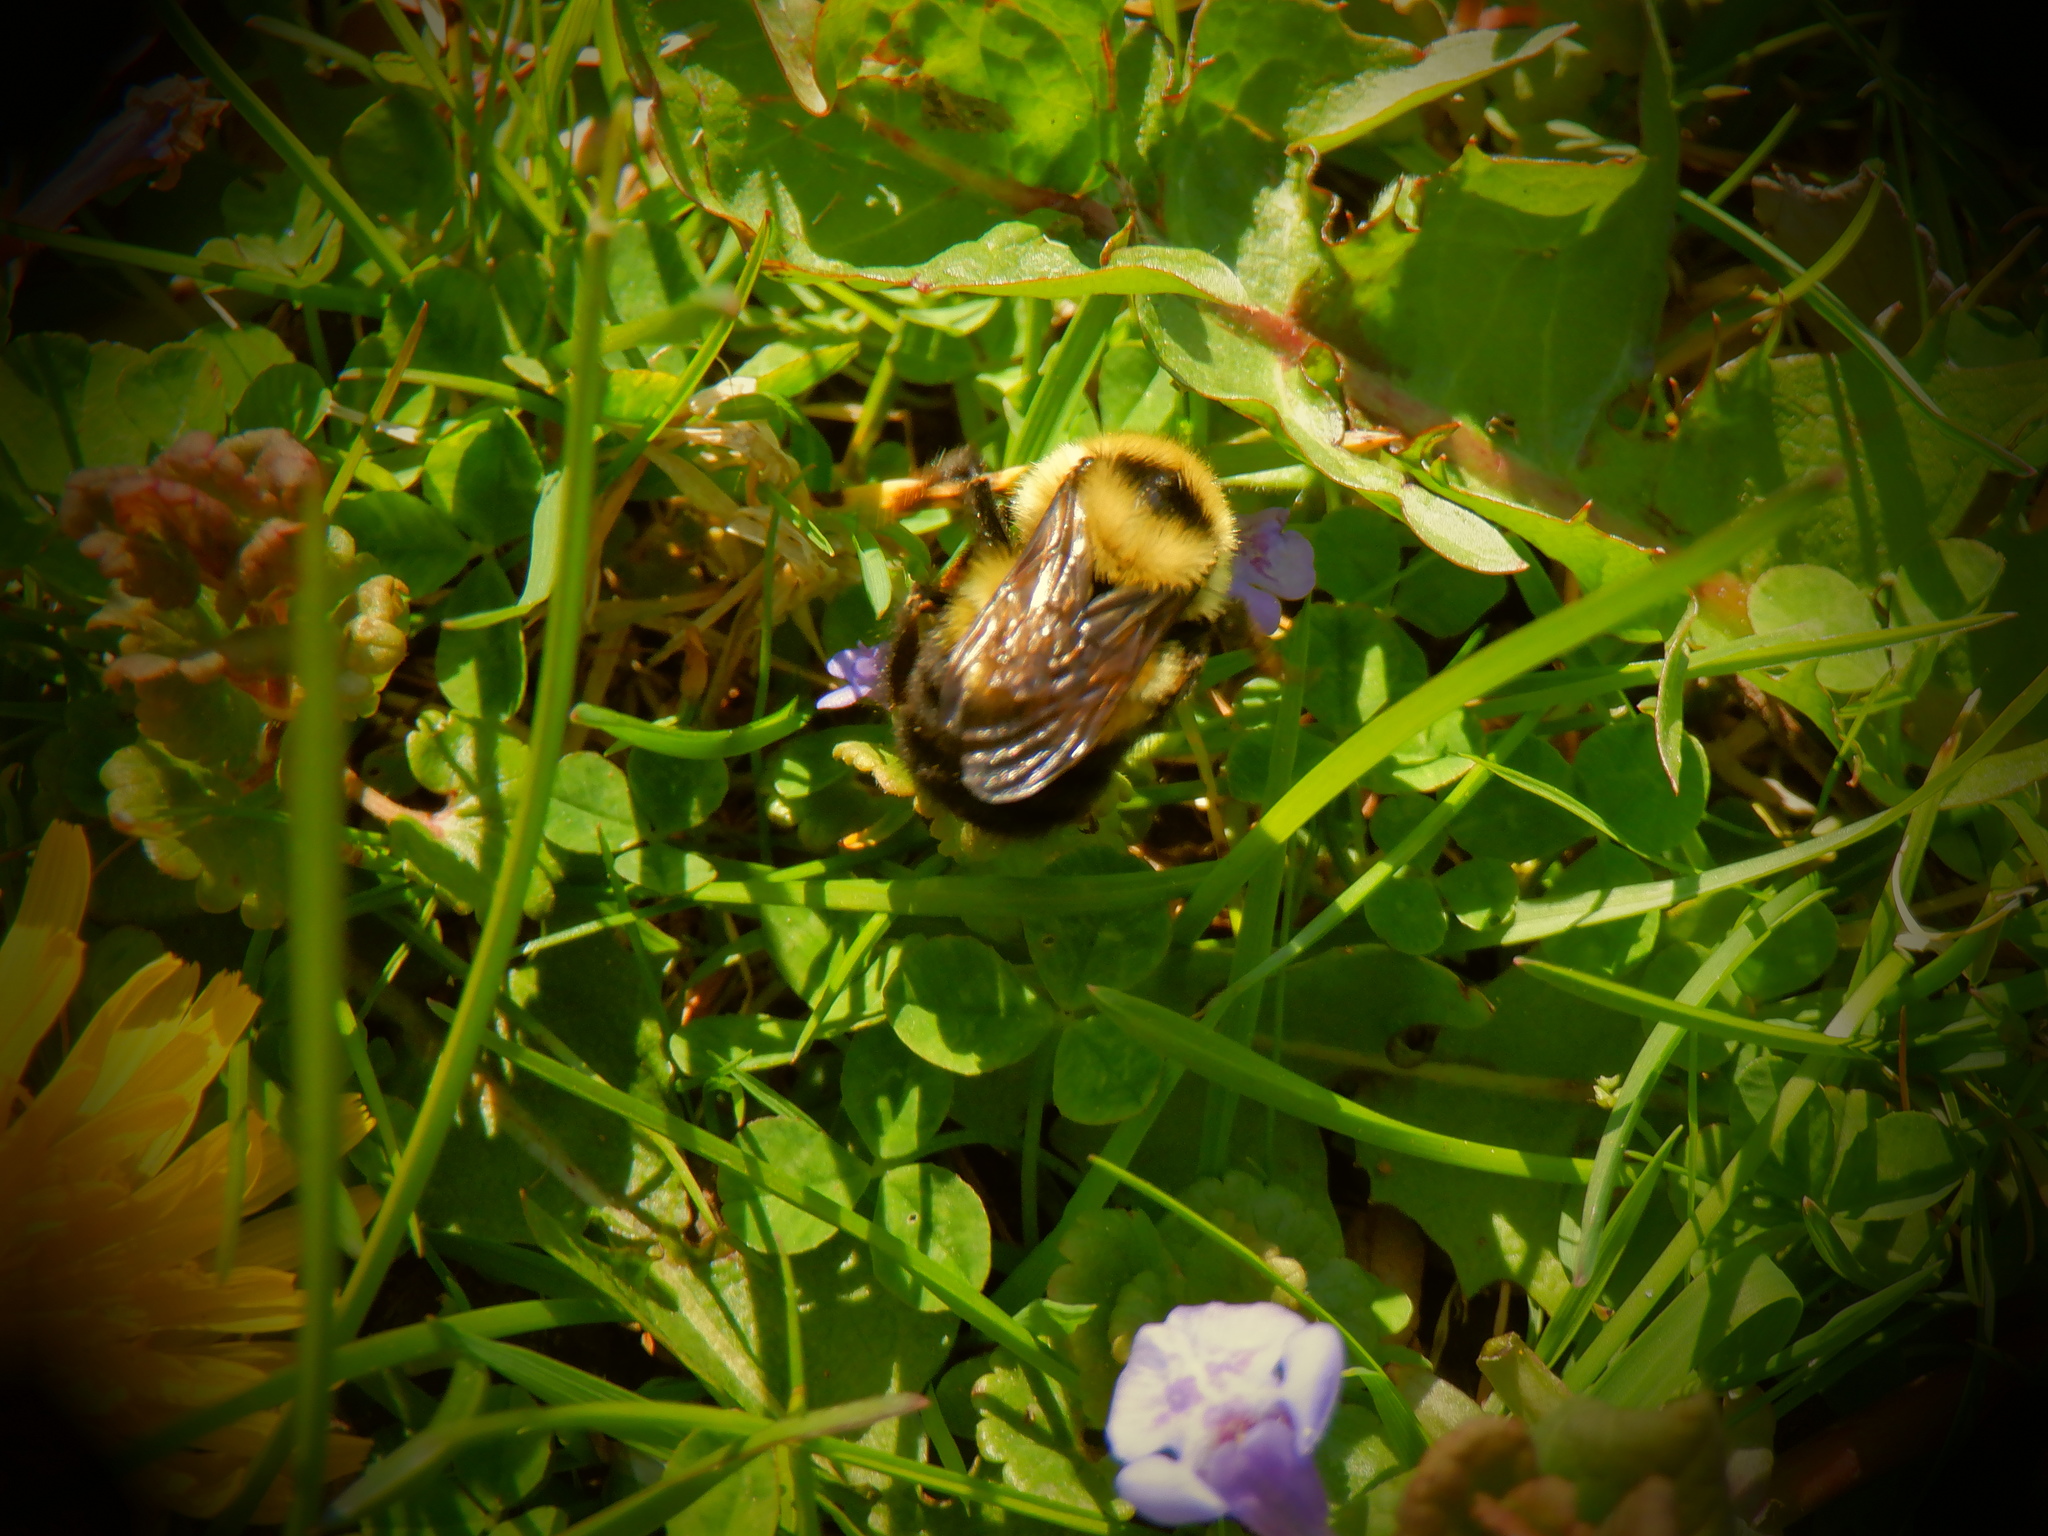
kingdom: Animalia
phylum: Arthropoda
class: Insecta
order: Hymenoptera
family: Apidae
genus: Bombus
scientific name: Bombus rufocinctus
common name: Red-belted bumble bee
